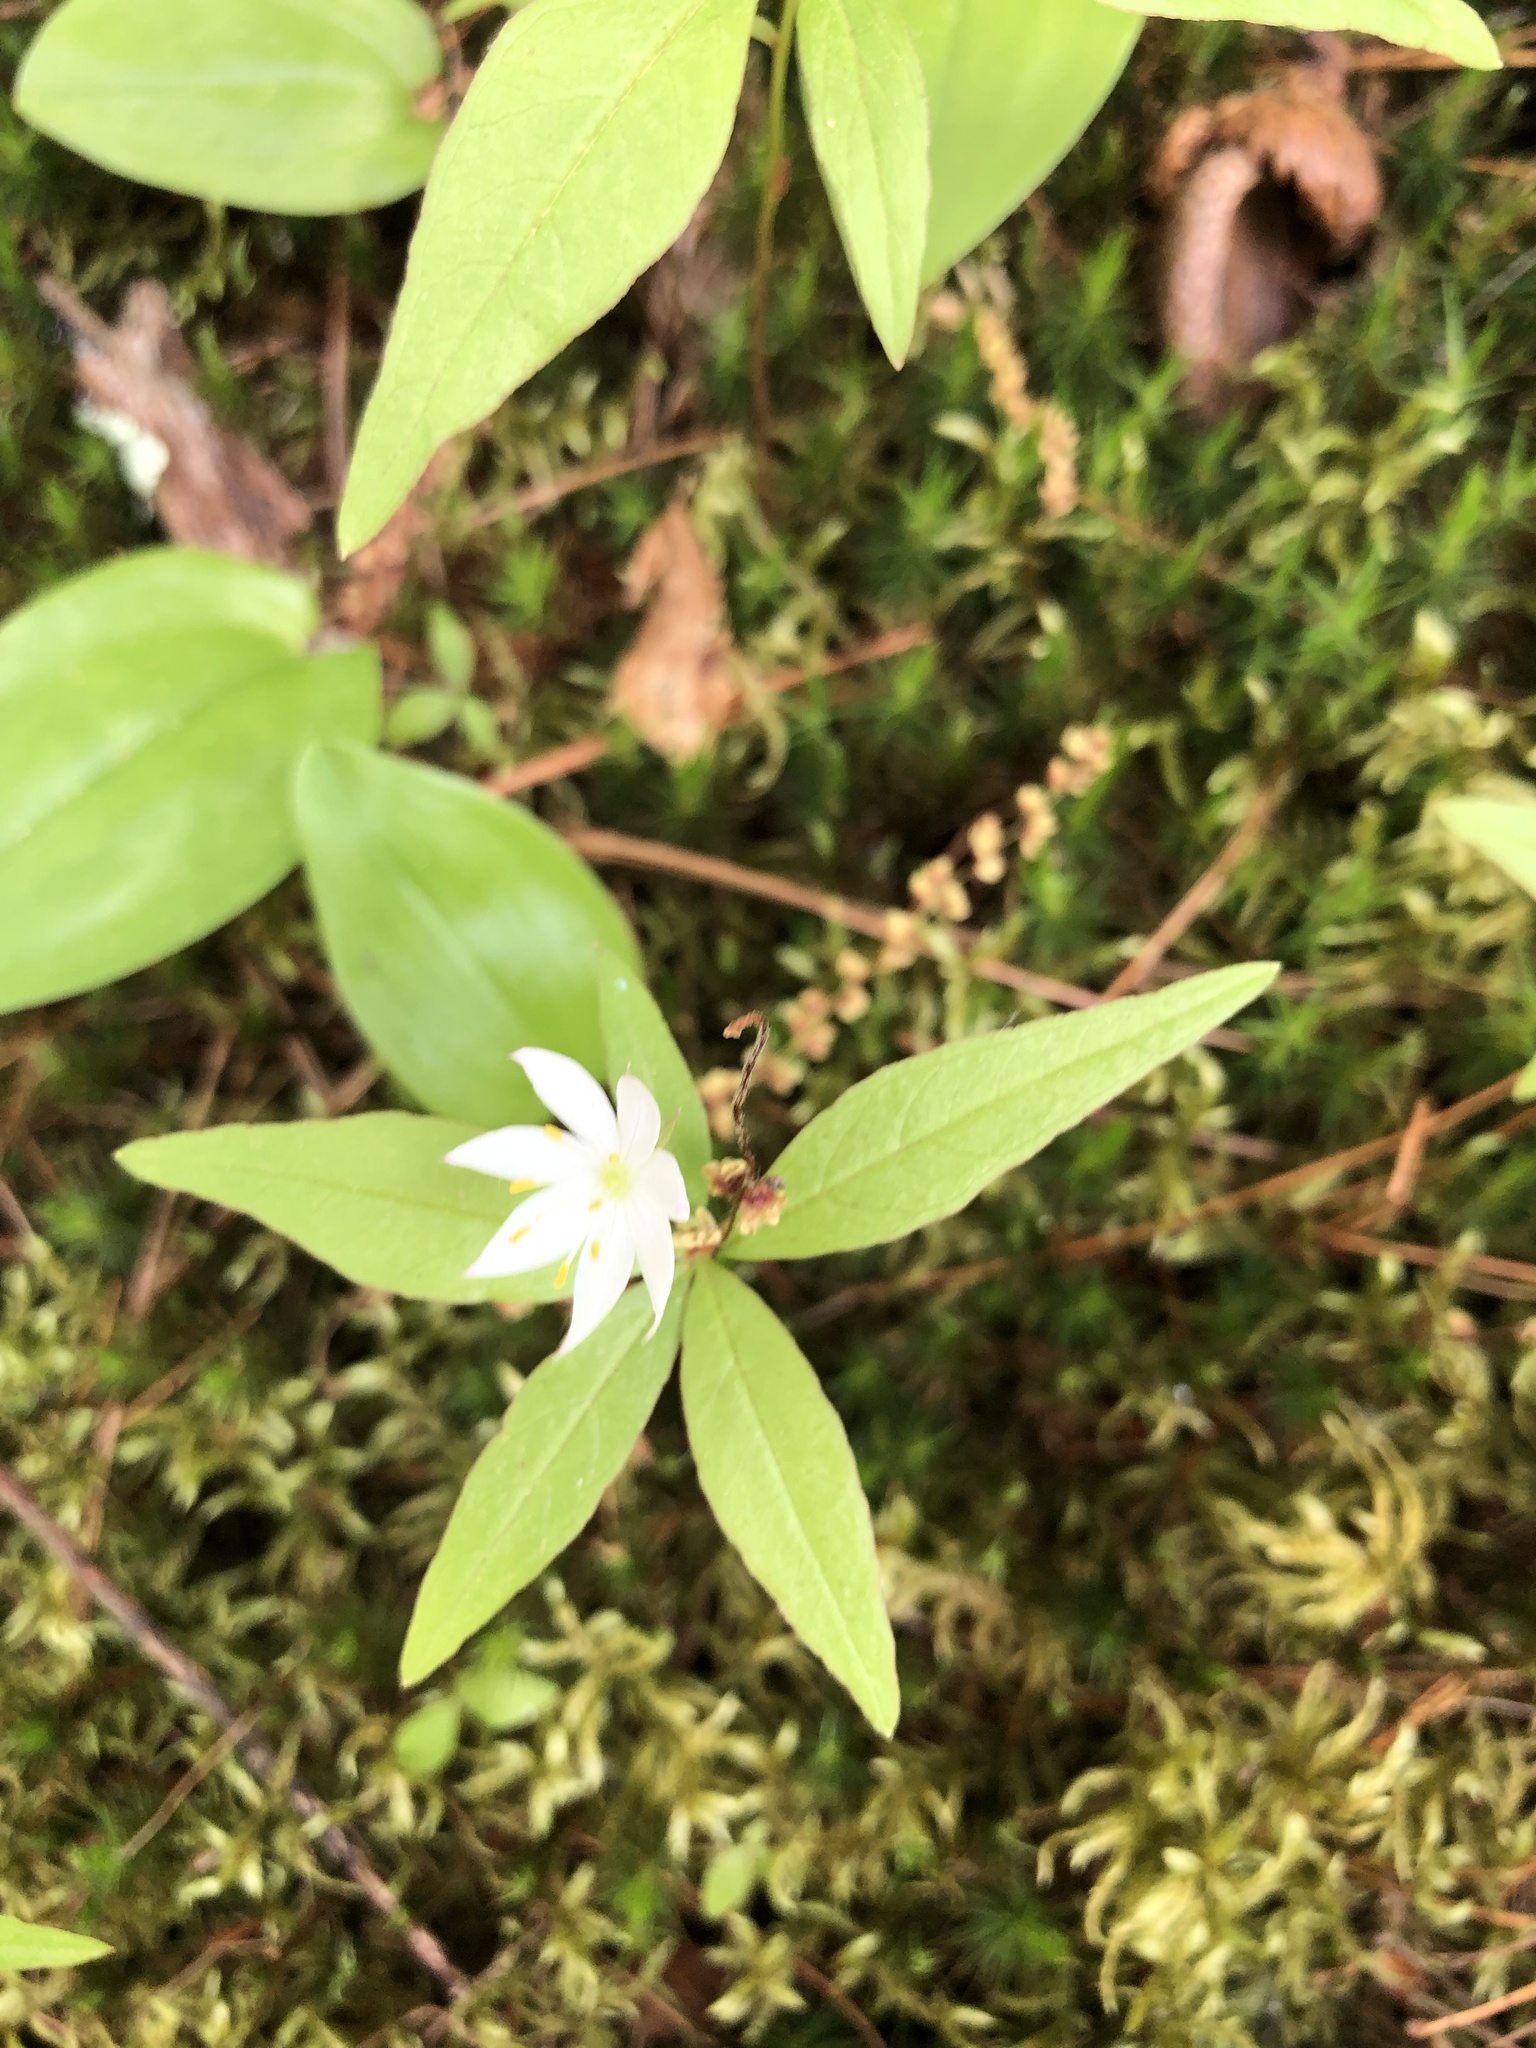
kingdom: Plantae
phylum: Tracheophyta
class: Magnoliopsida
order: Ericales
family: Primulaceae
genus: Lysimachia
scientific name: Lysimachia borealis
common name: American starflower
